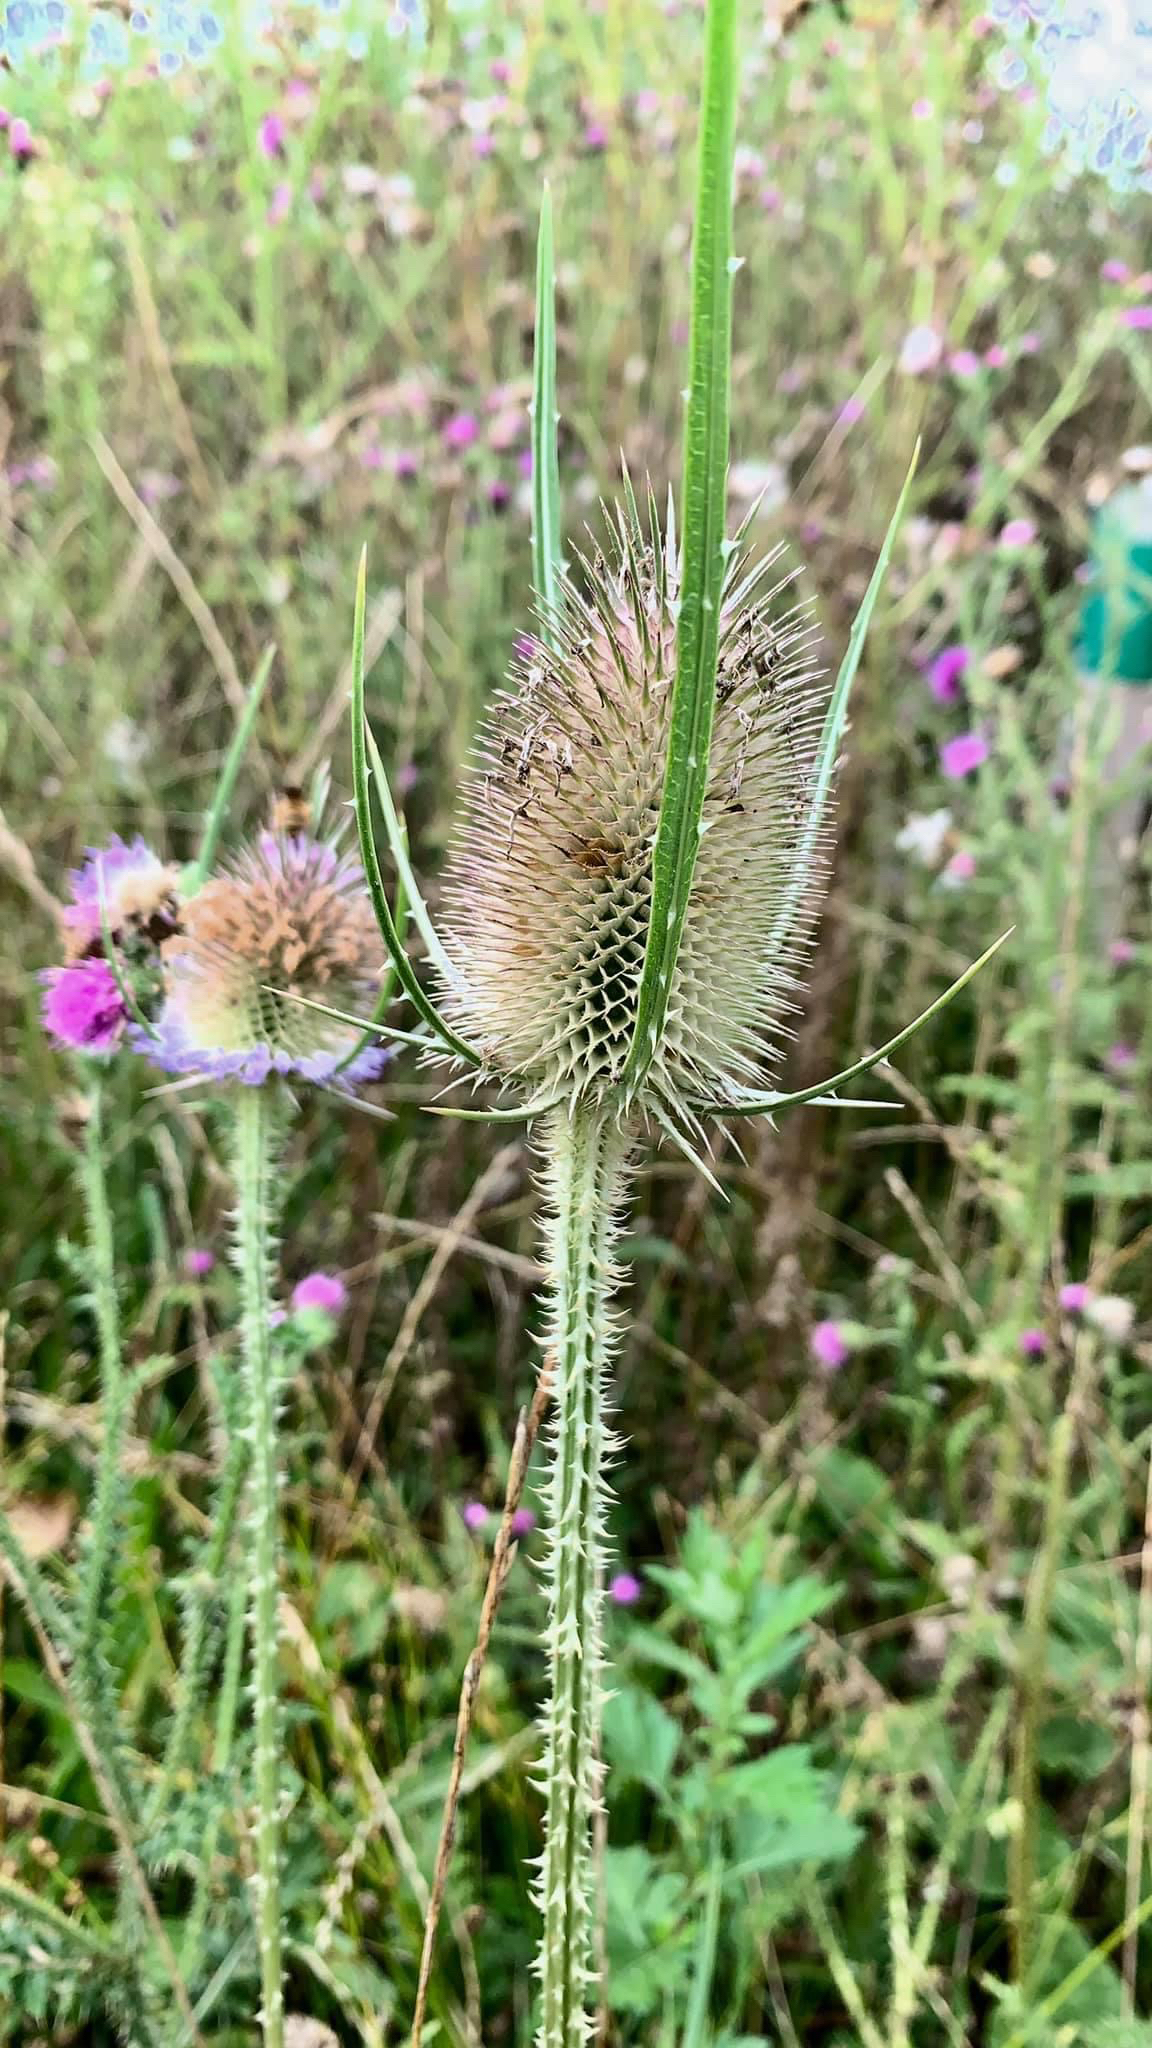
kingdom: Plantae
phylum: Tracheophyta
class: Magnoliopsida
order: Dipsacales
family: Caprifoliaceae
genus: Dipsacus
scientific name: Dipsacus fullonum
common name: Teasel
